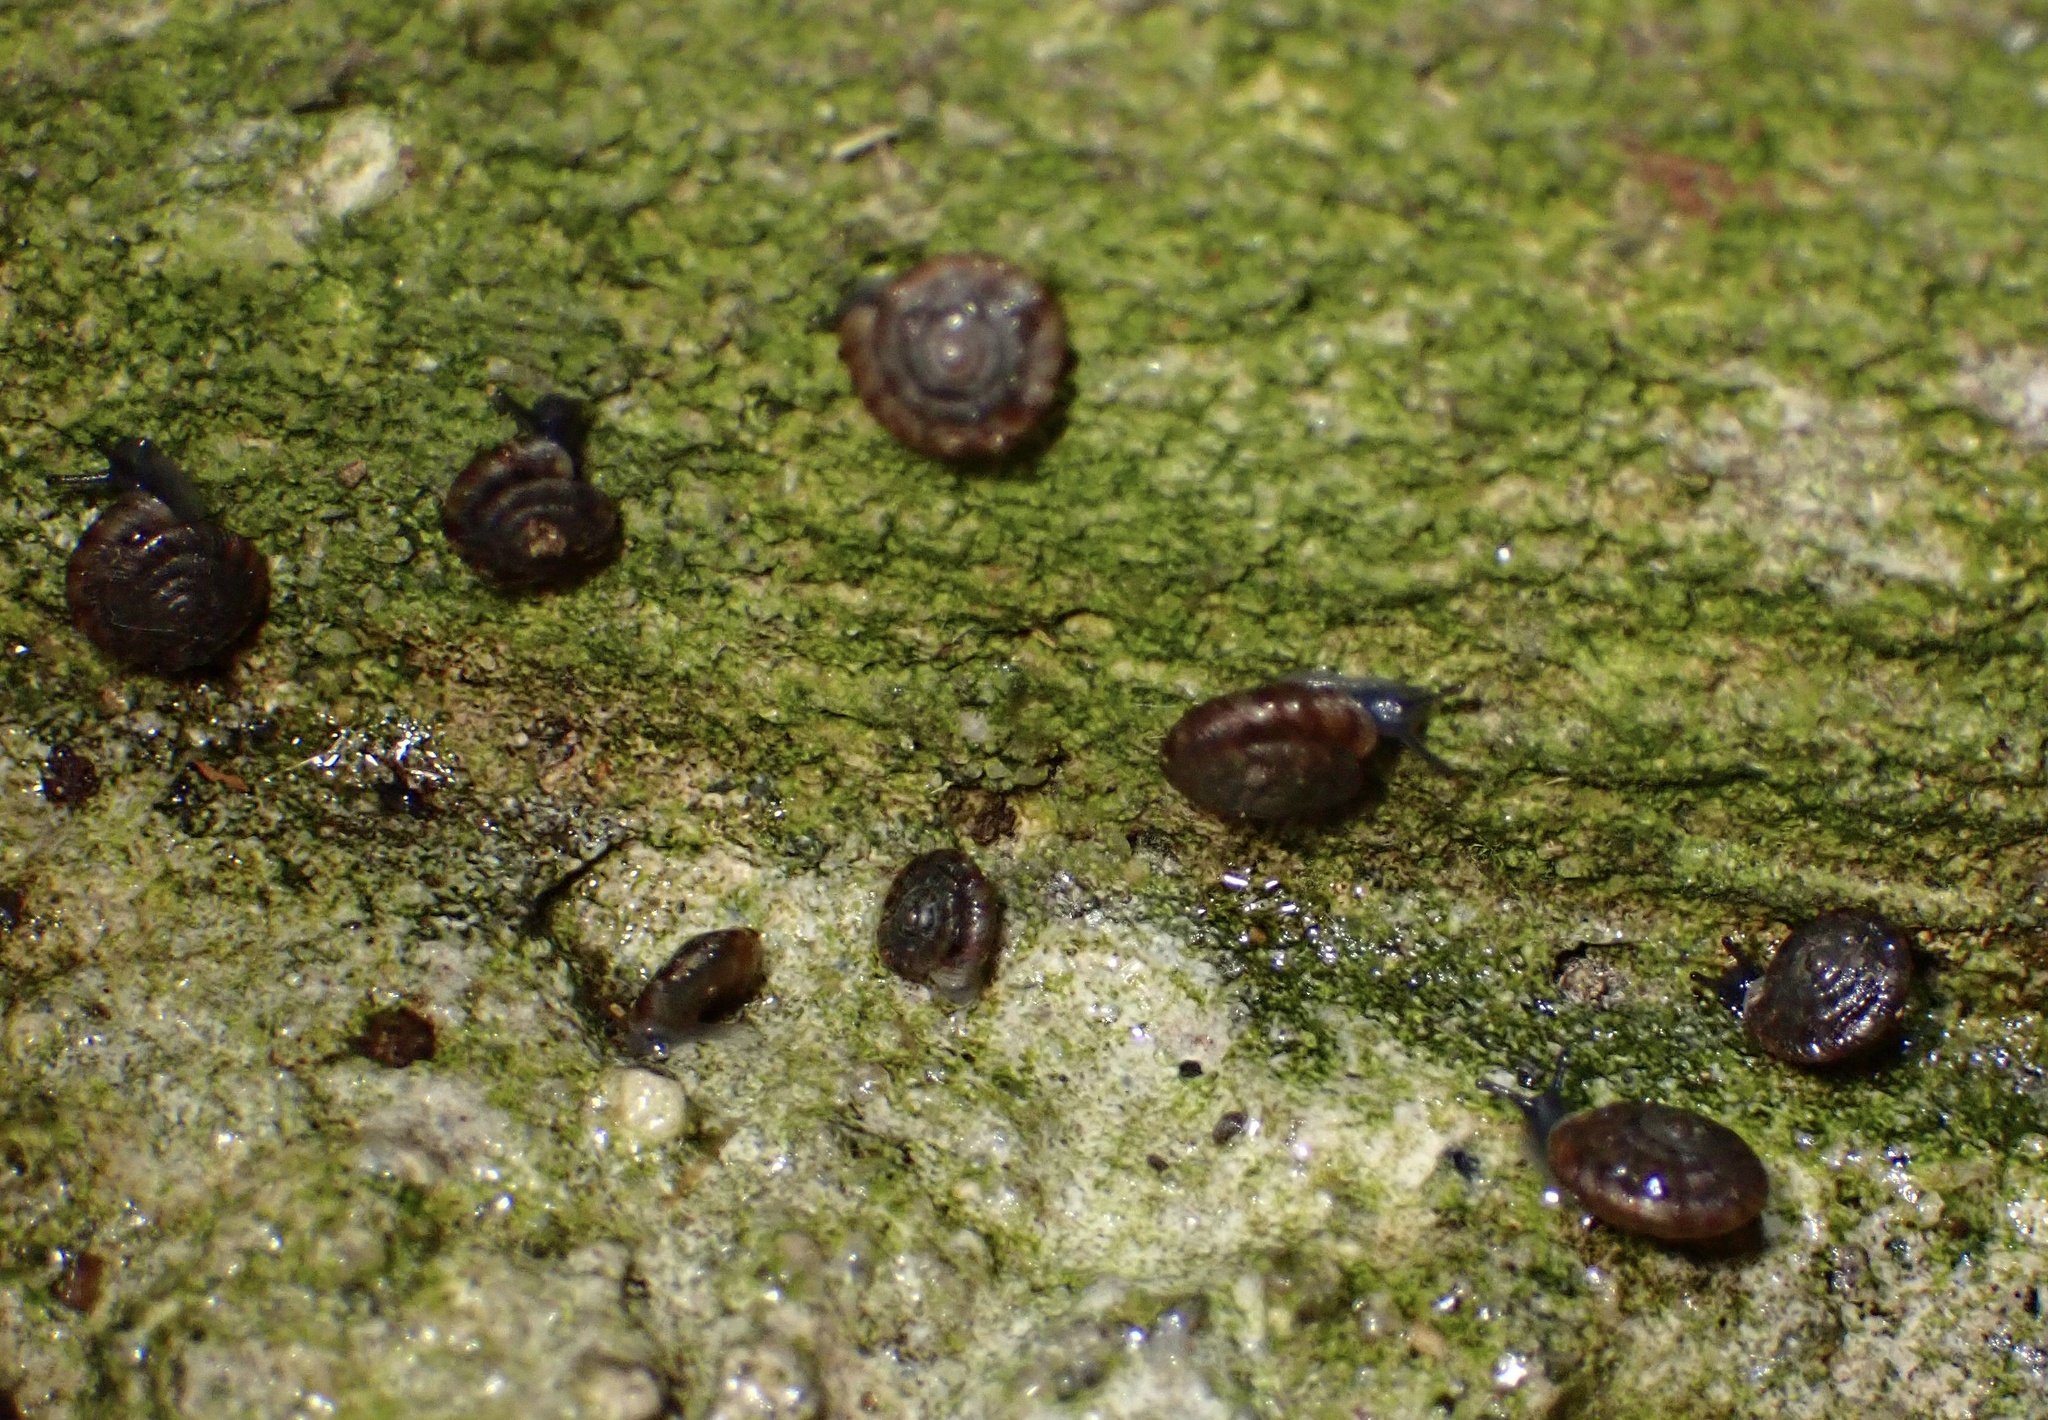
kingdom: Animalia
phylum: Mollusca
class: Gastropoda
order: Stylommatophora
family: Discidae
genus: Discus
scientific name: Discus rotundatus
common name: Rounded snail
